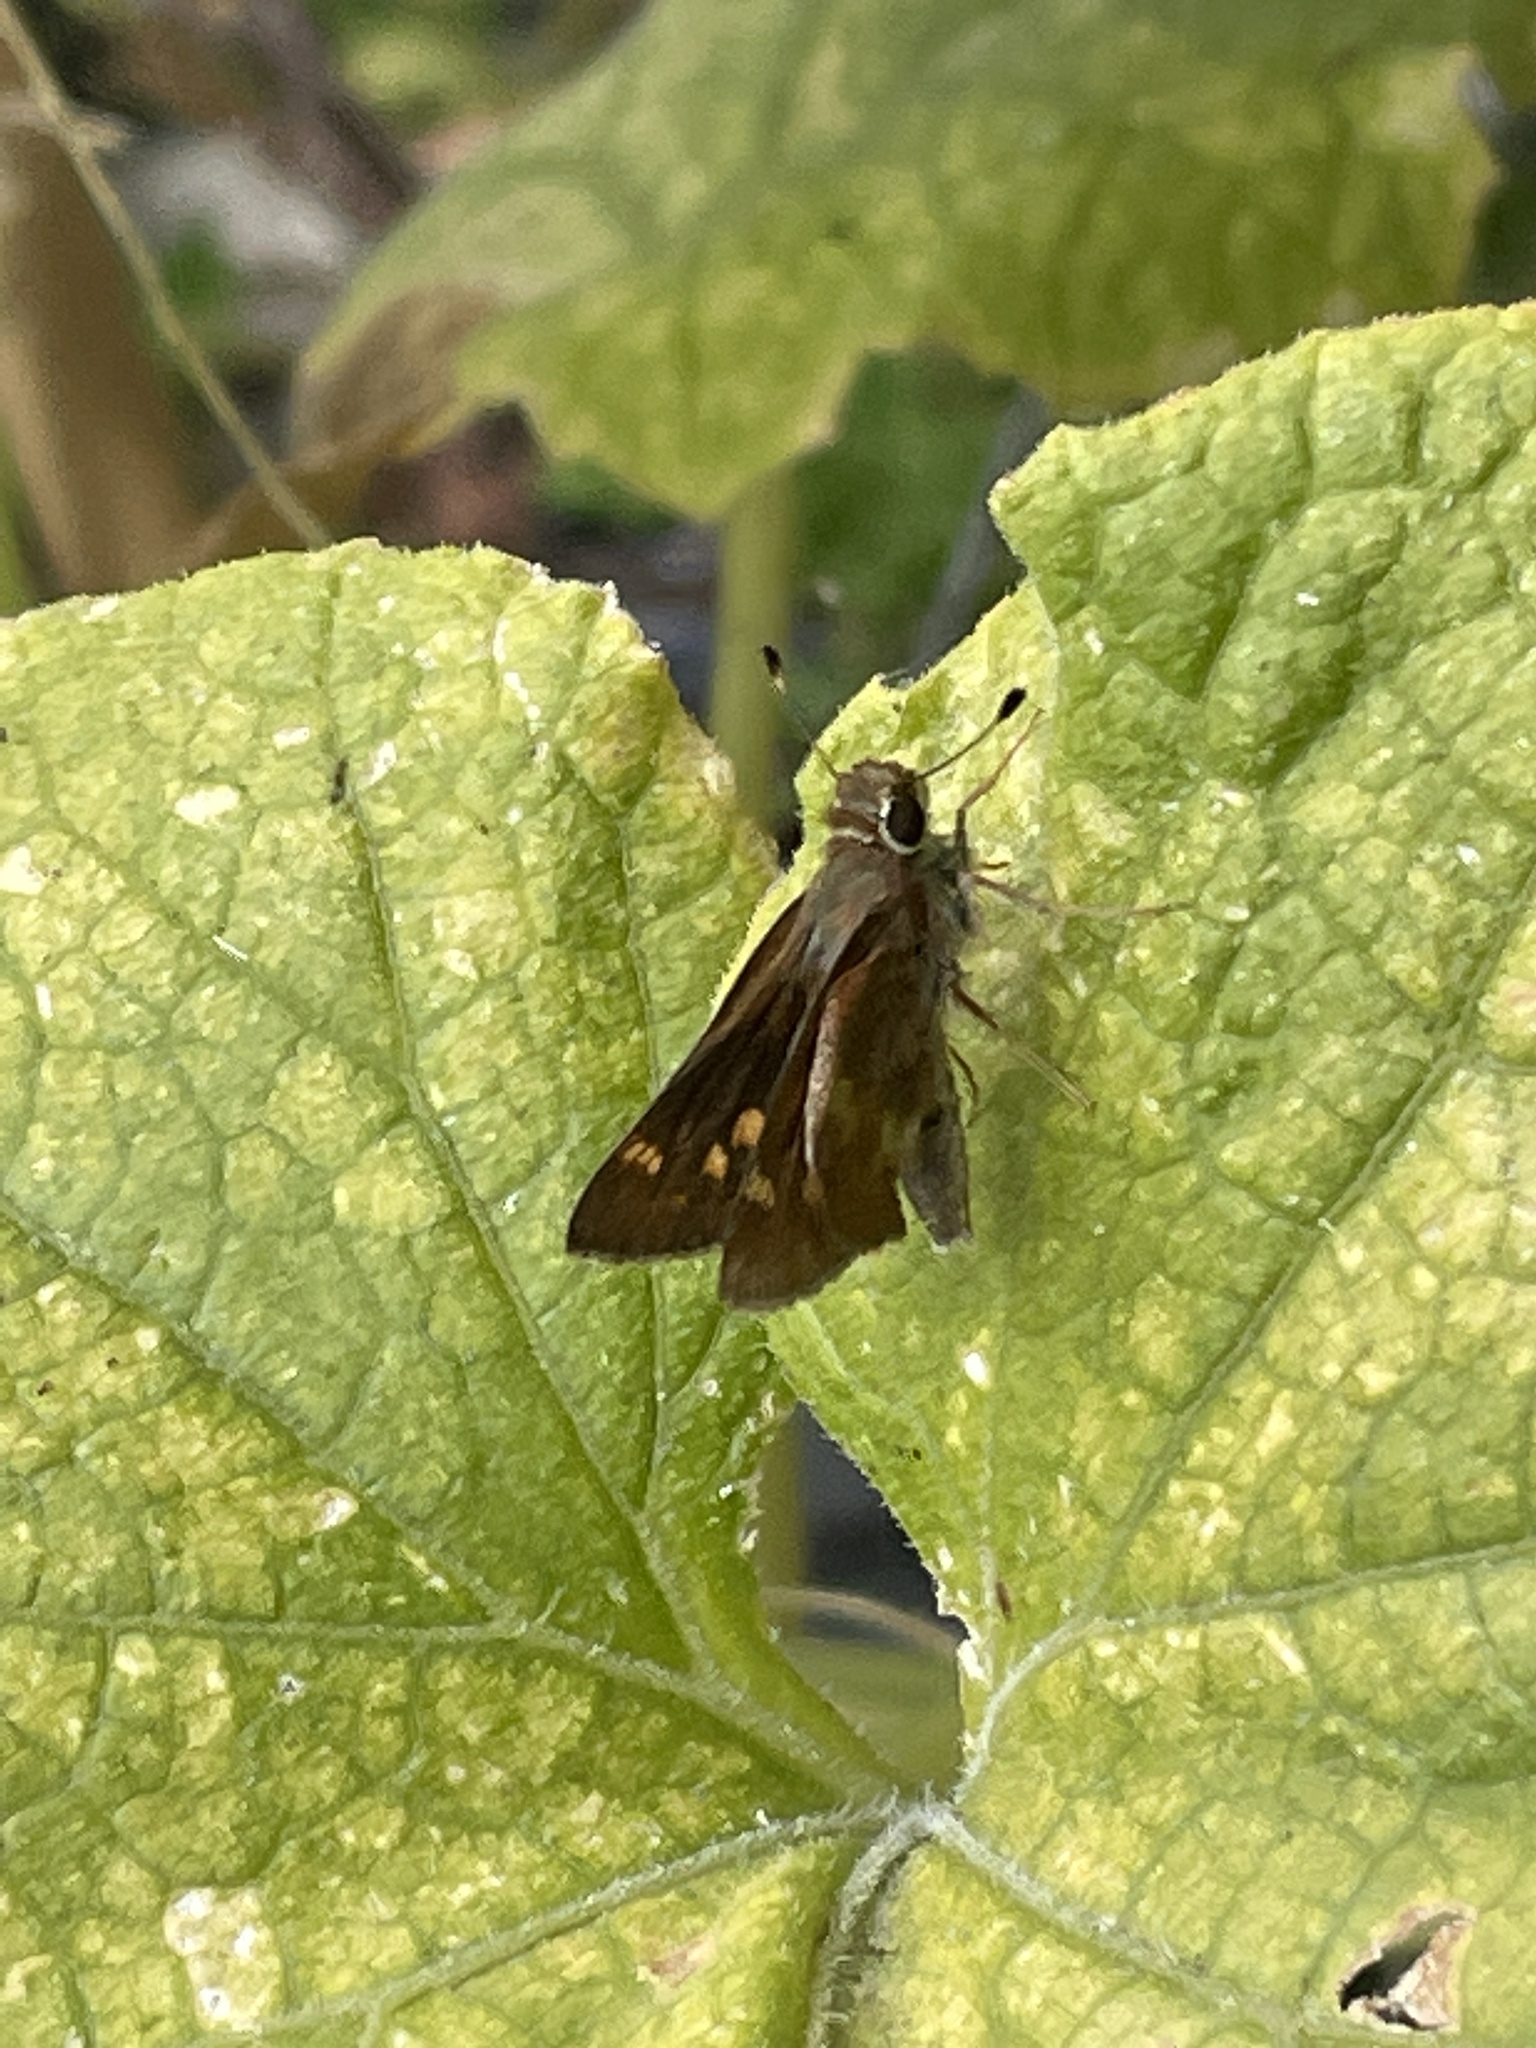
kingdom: Animalia
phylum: Arthropoda
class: Insecta
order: Lepidoptera
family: Hesperiidae
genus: Lon
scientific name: Lon melane
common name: Umber skipper
